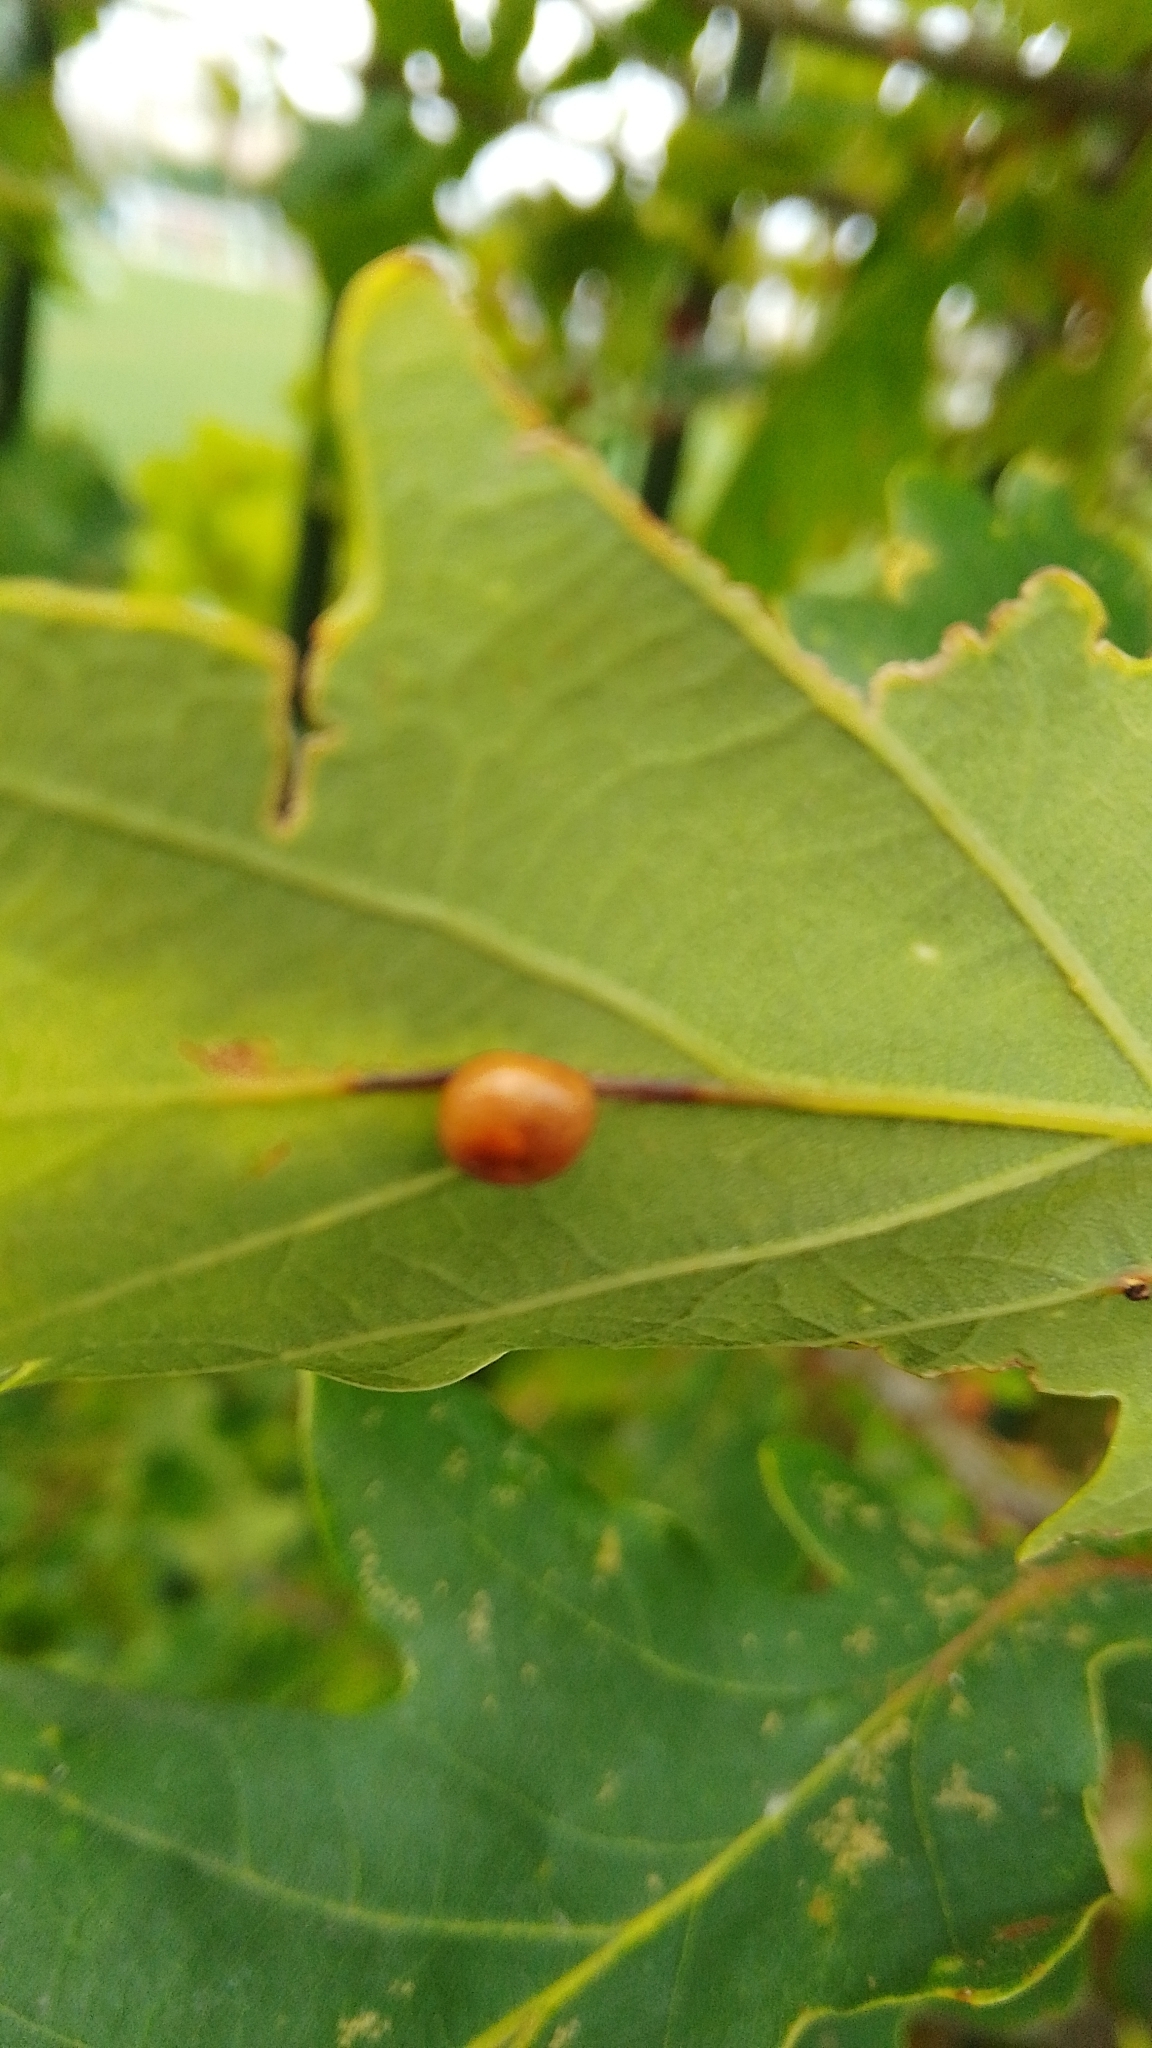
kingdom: Animalia
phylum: Arthropoda
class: Insecta
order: Hymenoptera
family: Cynipidae
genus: Cynips
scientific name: Cynips divisa
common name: Red currant gall
